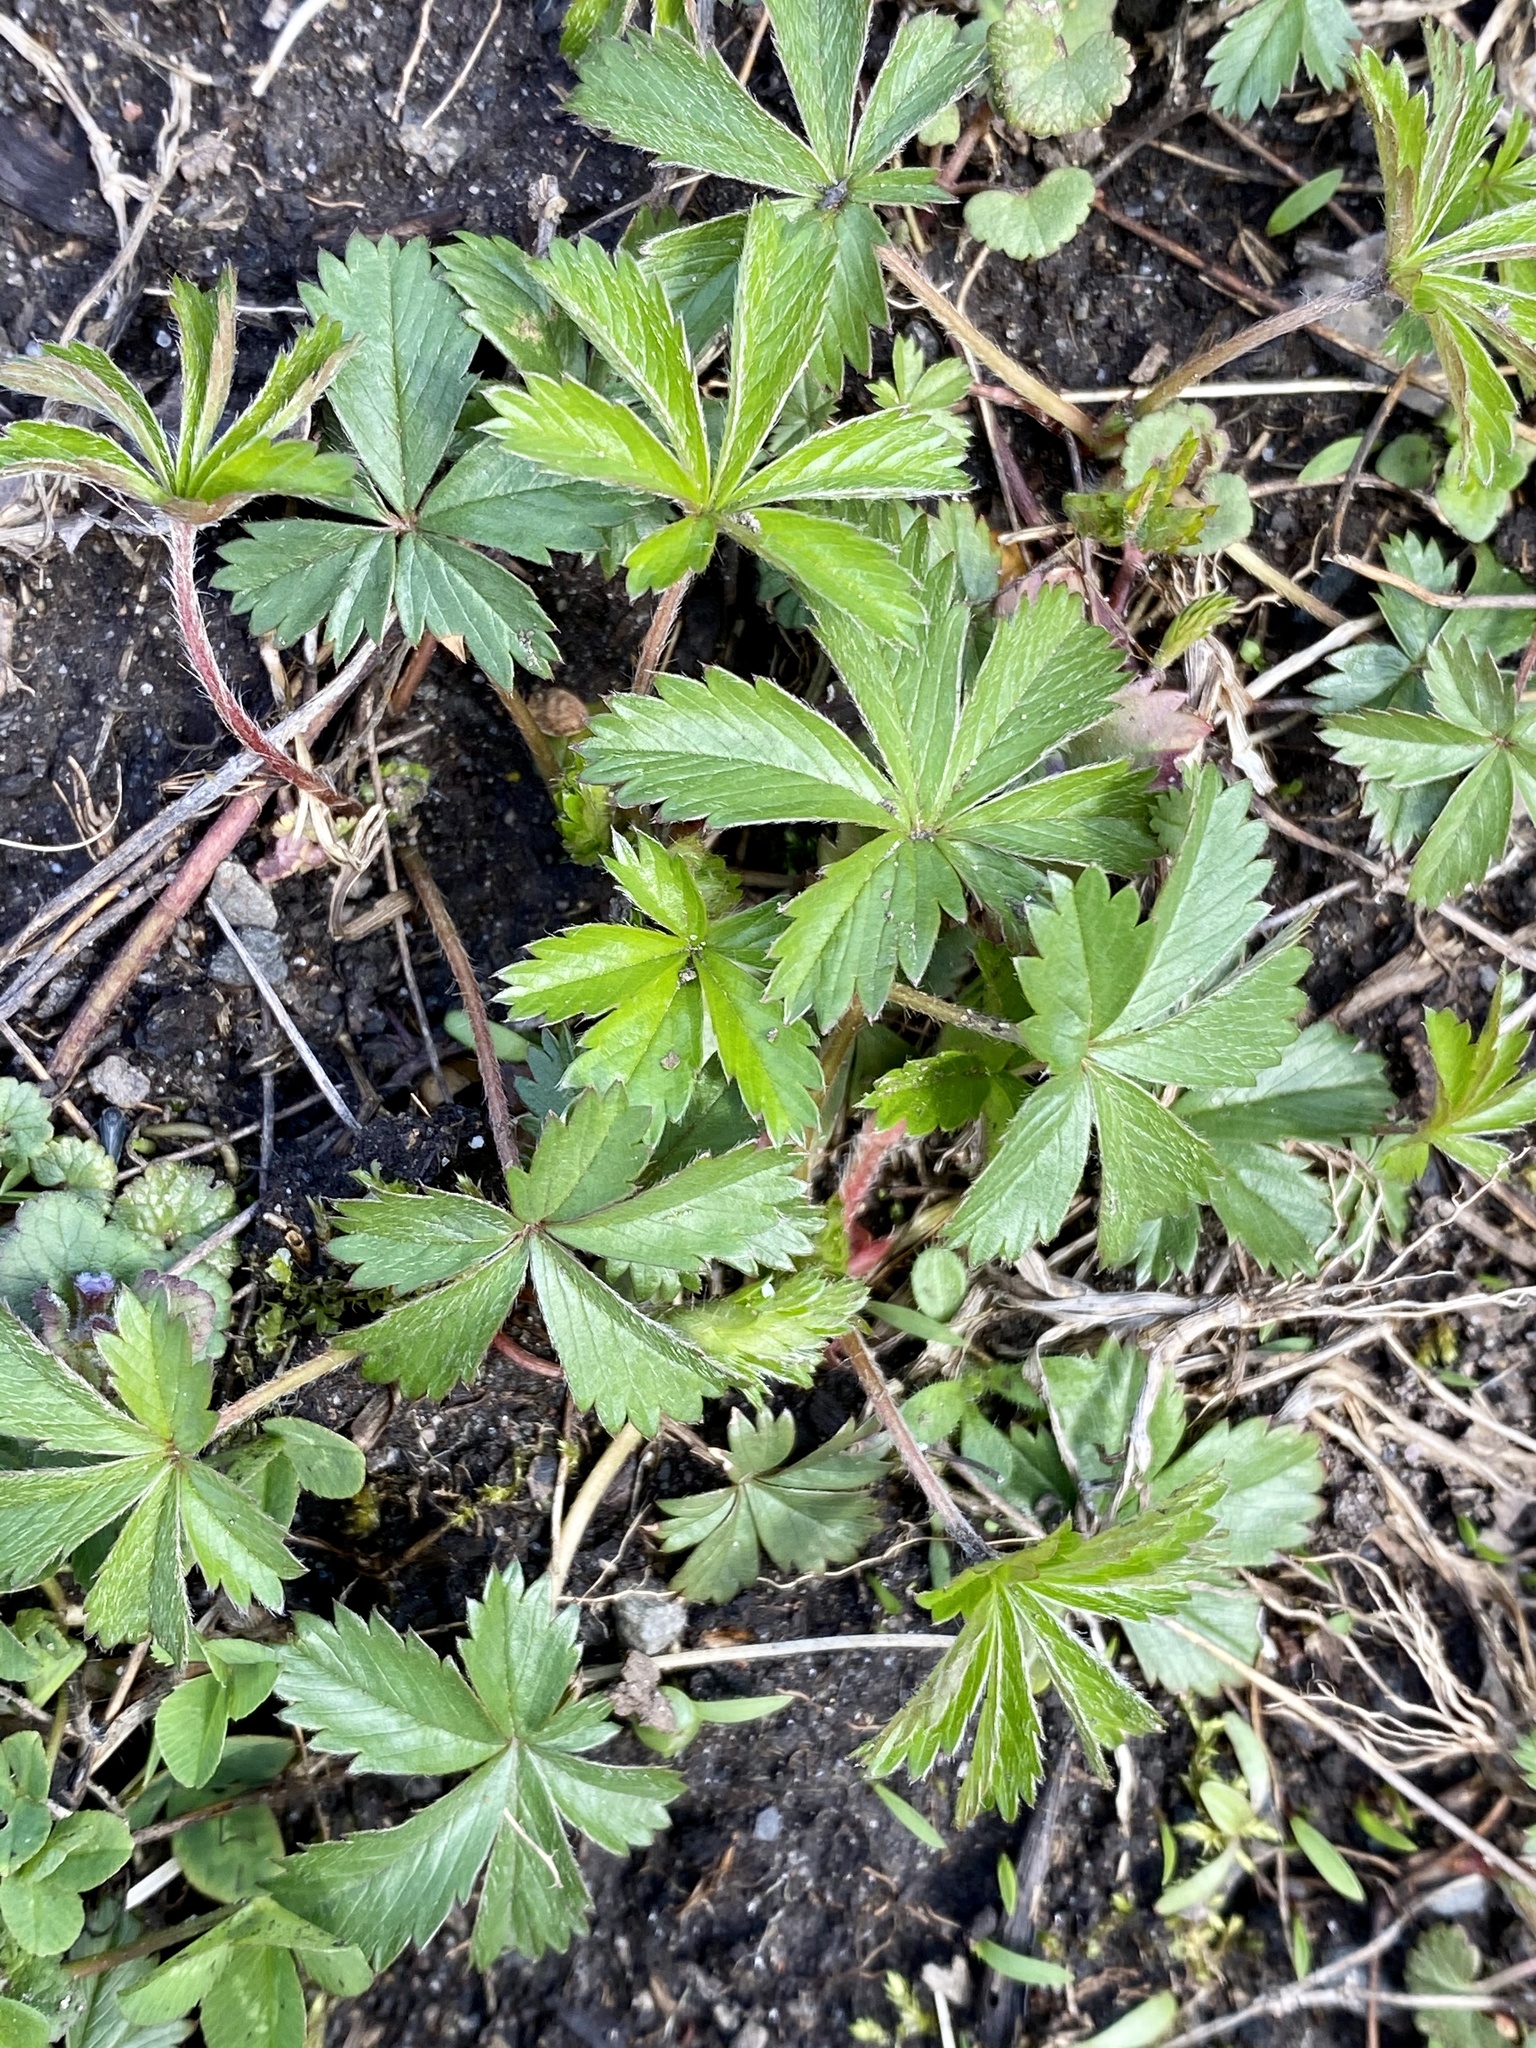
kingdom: Plantae
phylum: Tracheophyta
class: Magnoliopsida
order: Rosales
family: Rosaceae
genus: Potentilla
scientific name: Potentilla canadensis
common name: Canada cinquefoil
